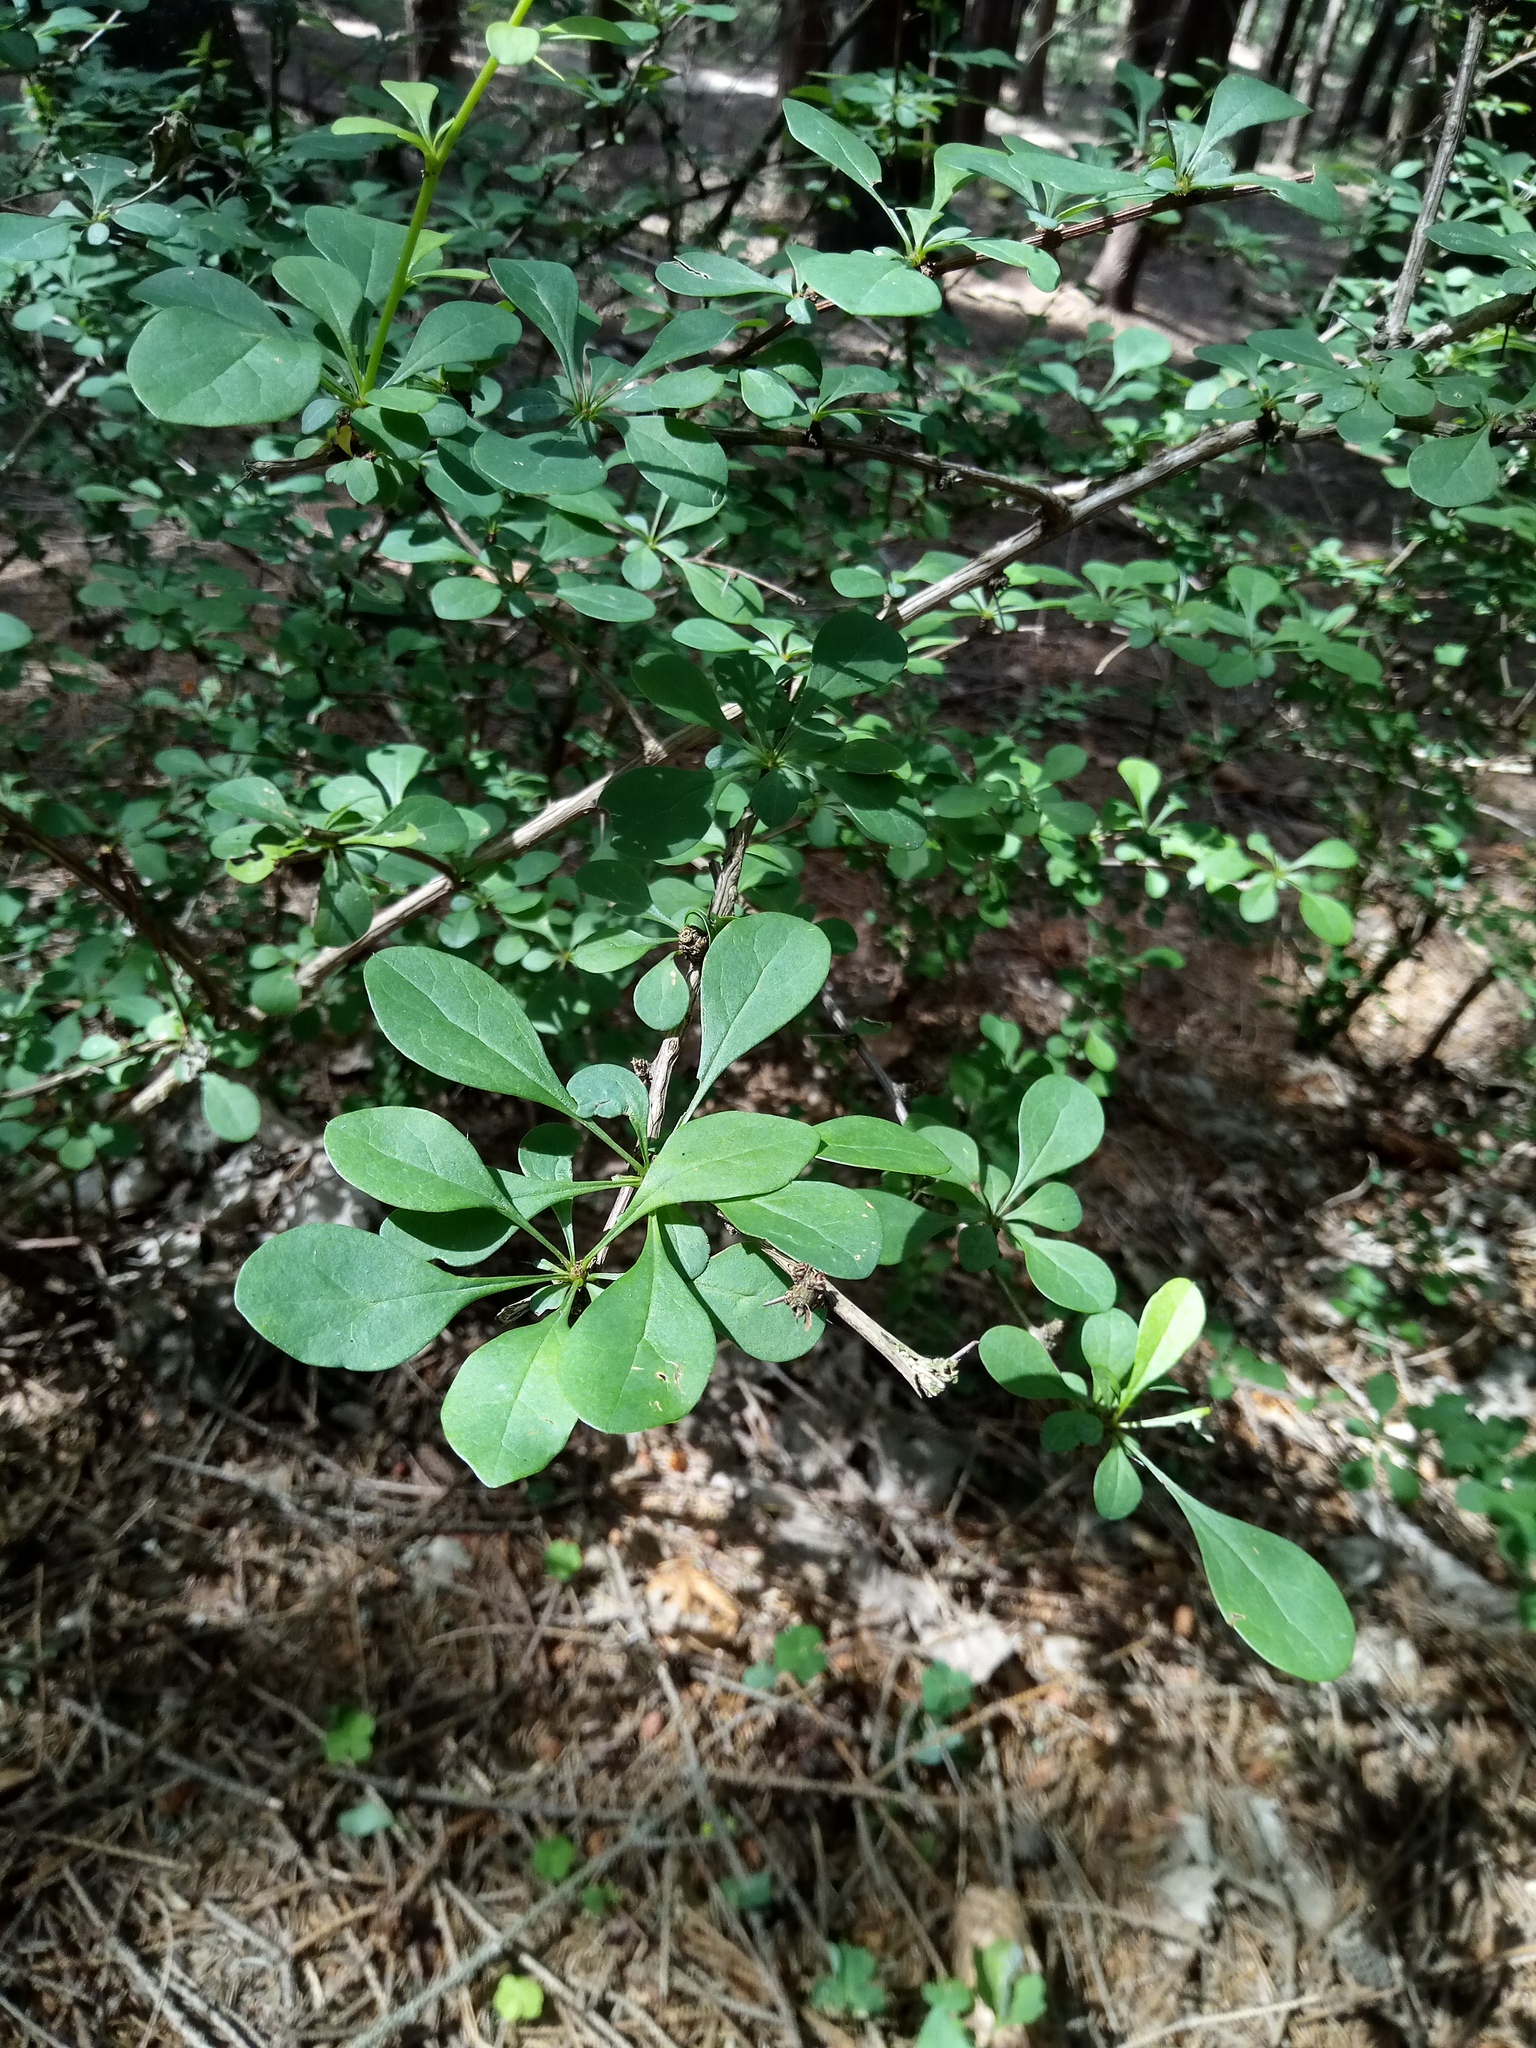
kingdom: Plantae
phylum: Tracheophyta
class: Magnoliopsida
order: Ranunculales
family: Berberidaceae
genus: Berberis
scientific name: Berberis thunbergii
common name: Japanese barberry
